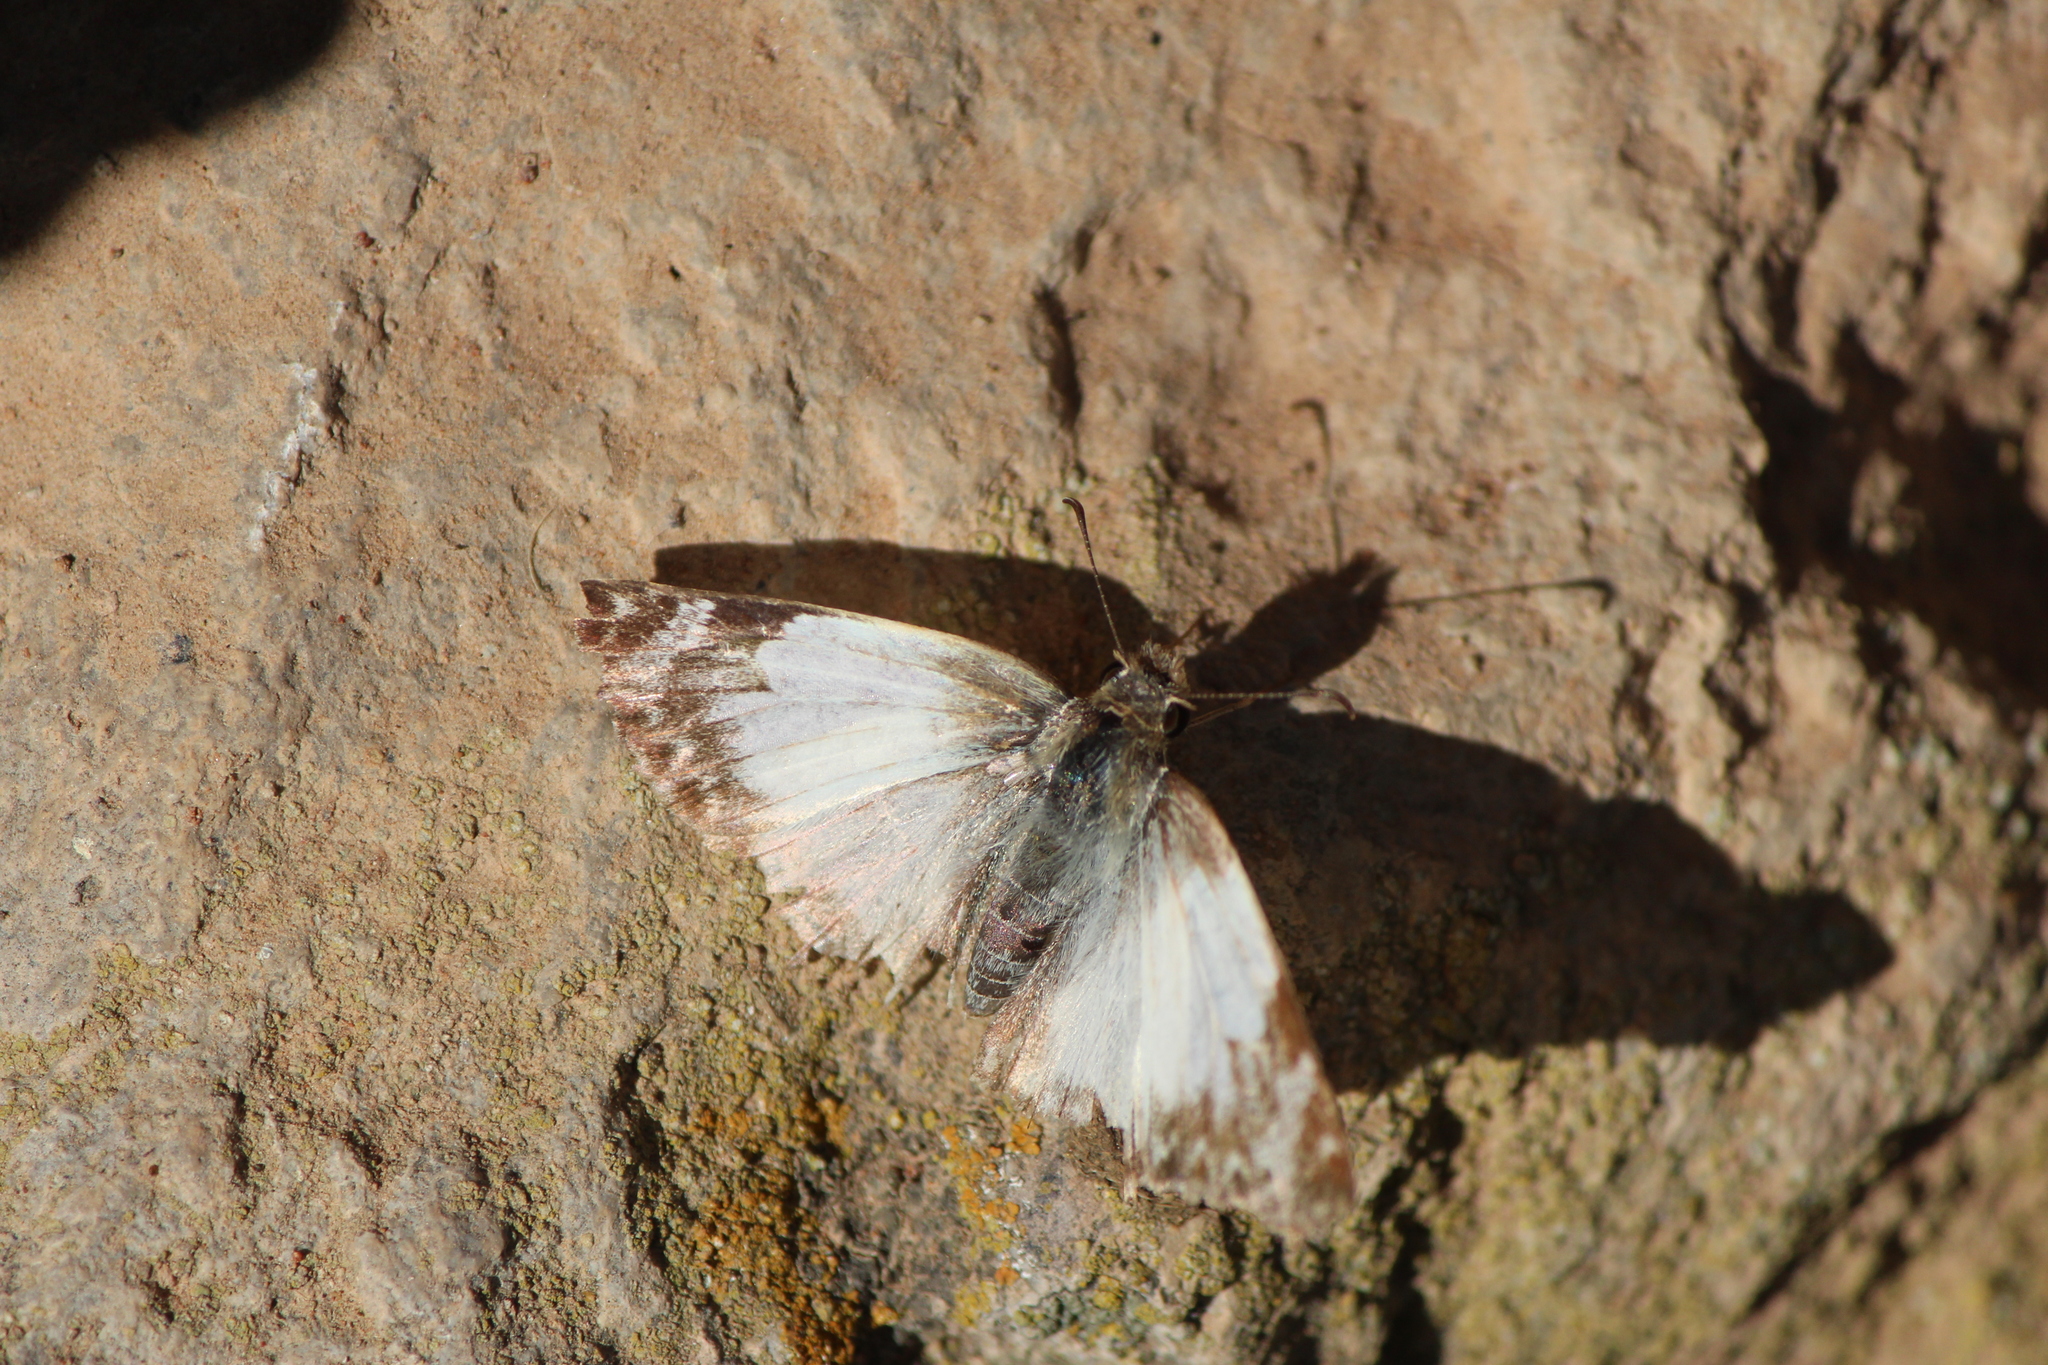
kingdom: Animalia
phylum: Arthropoda
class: Insecta
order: Lepidoptera
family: Hesperiidae
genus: Heliopetes
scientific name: Heliopetes laviana
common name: Laviana white-skipper
